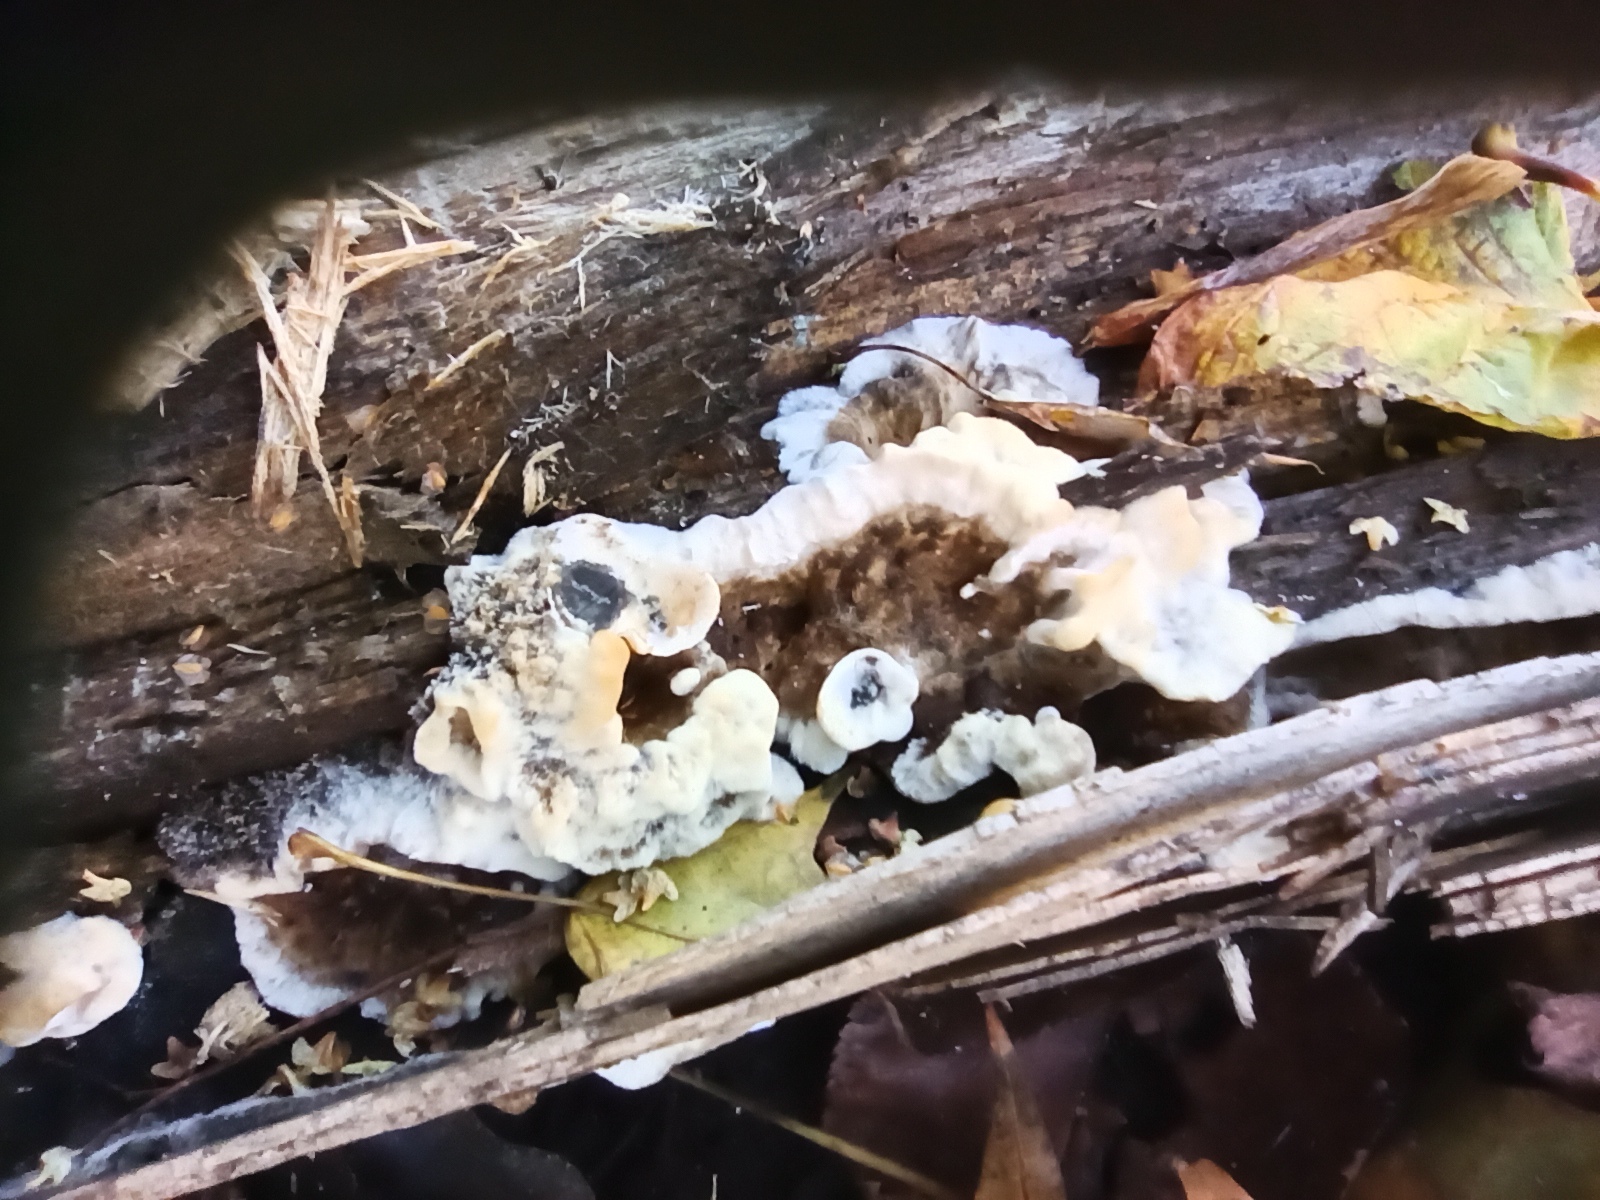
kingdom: Fungi
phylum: Basidiomycota
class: Agaricomycetes
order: Polyporales
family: Phanerochaetaceae
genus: Bjerkandera
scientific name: Bjerkandera adusta
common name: Smoky bracket
